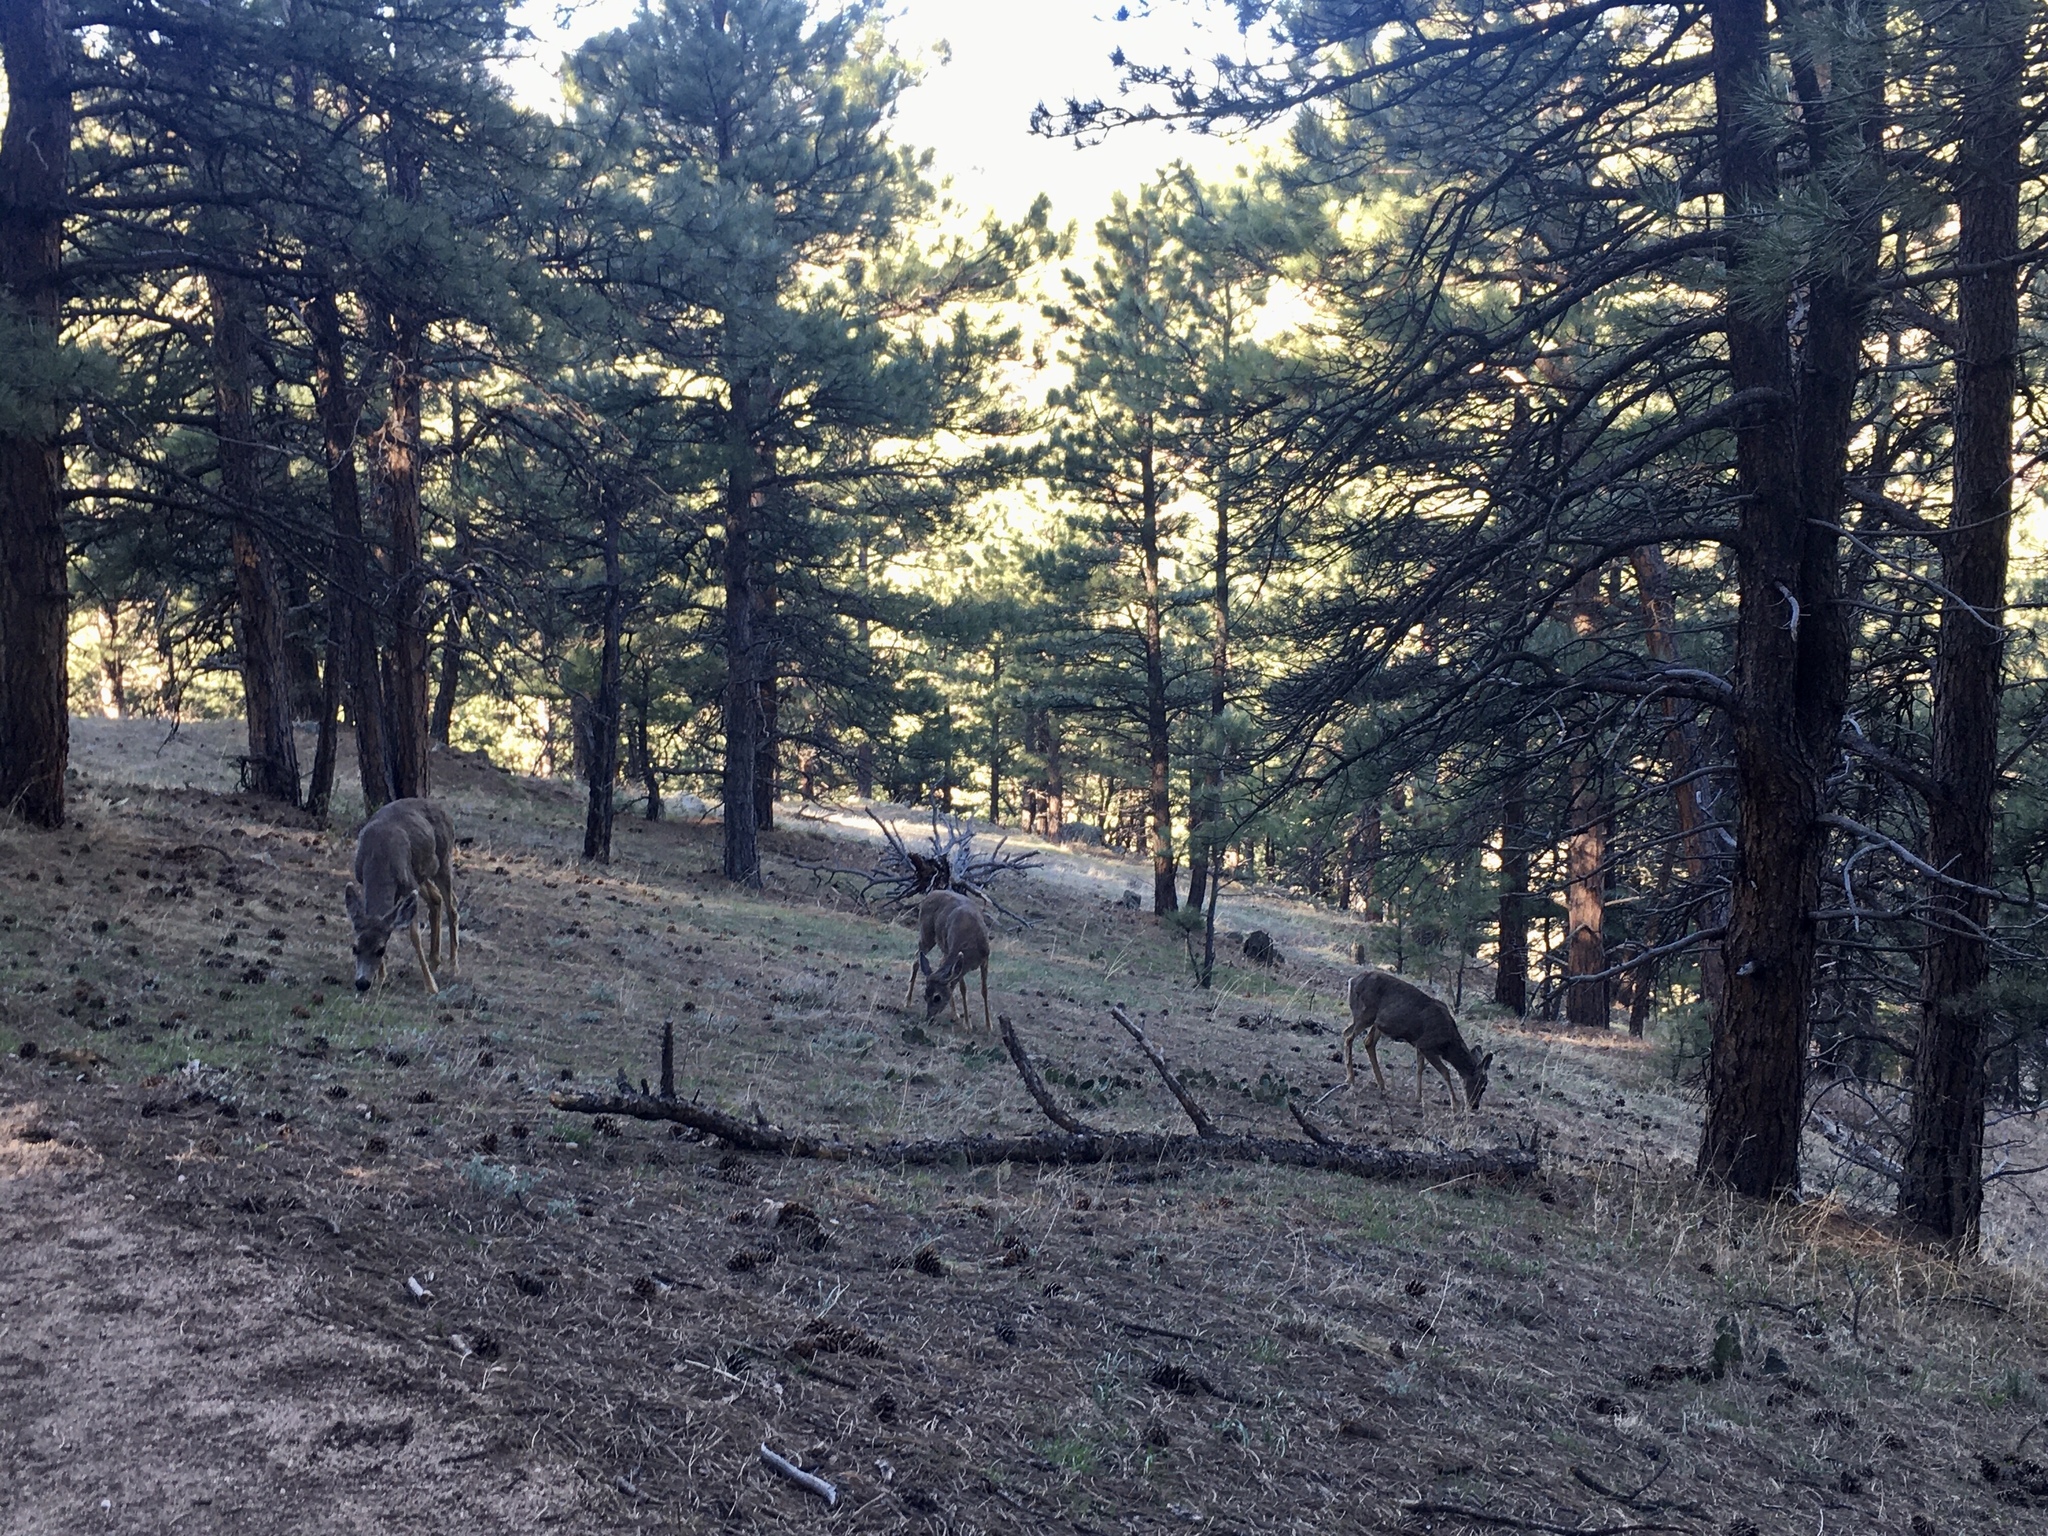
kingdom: Animalia
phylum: Chordata
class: Mammalia
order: Artiodactyla
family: Cervidae
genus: Odocoileus
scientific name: Odocoileus hemionus
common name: Mule deer
